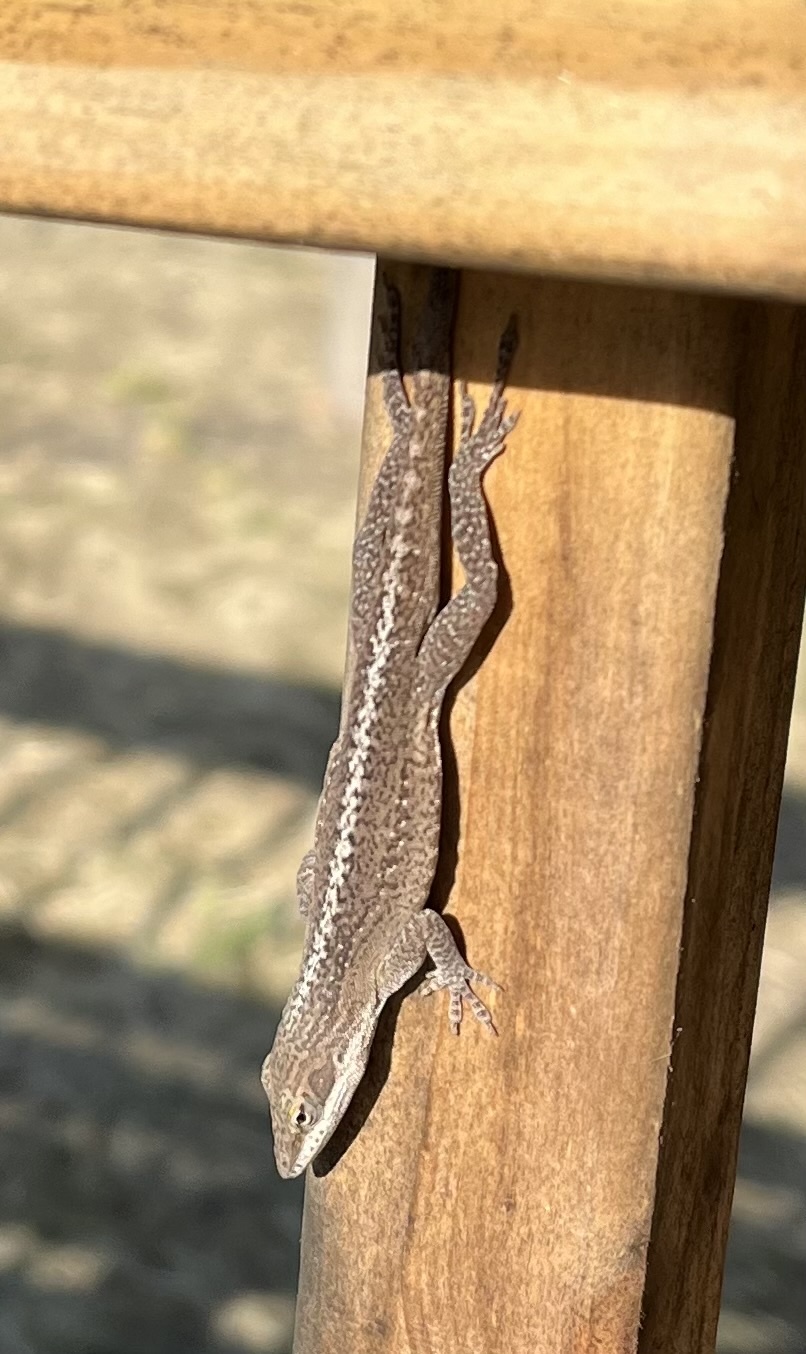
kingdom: Animalia
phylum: Chordata
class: Squamata
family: Dactyloidae
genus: Anolis
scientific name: Anolis carolinensis
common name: Green anole
